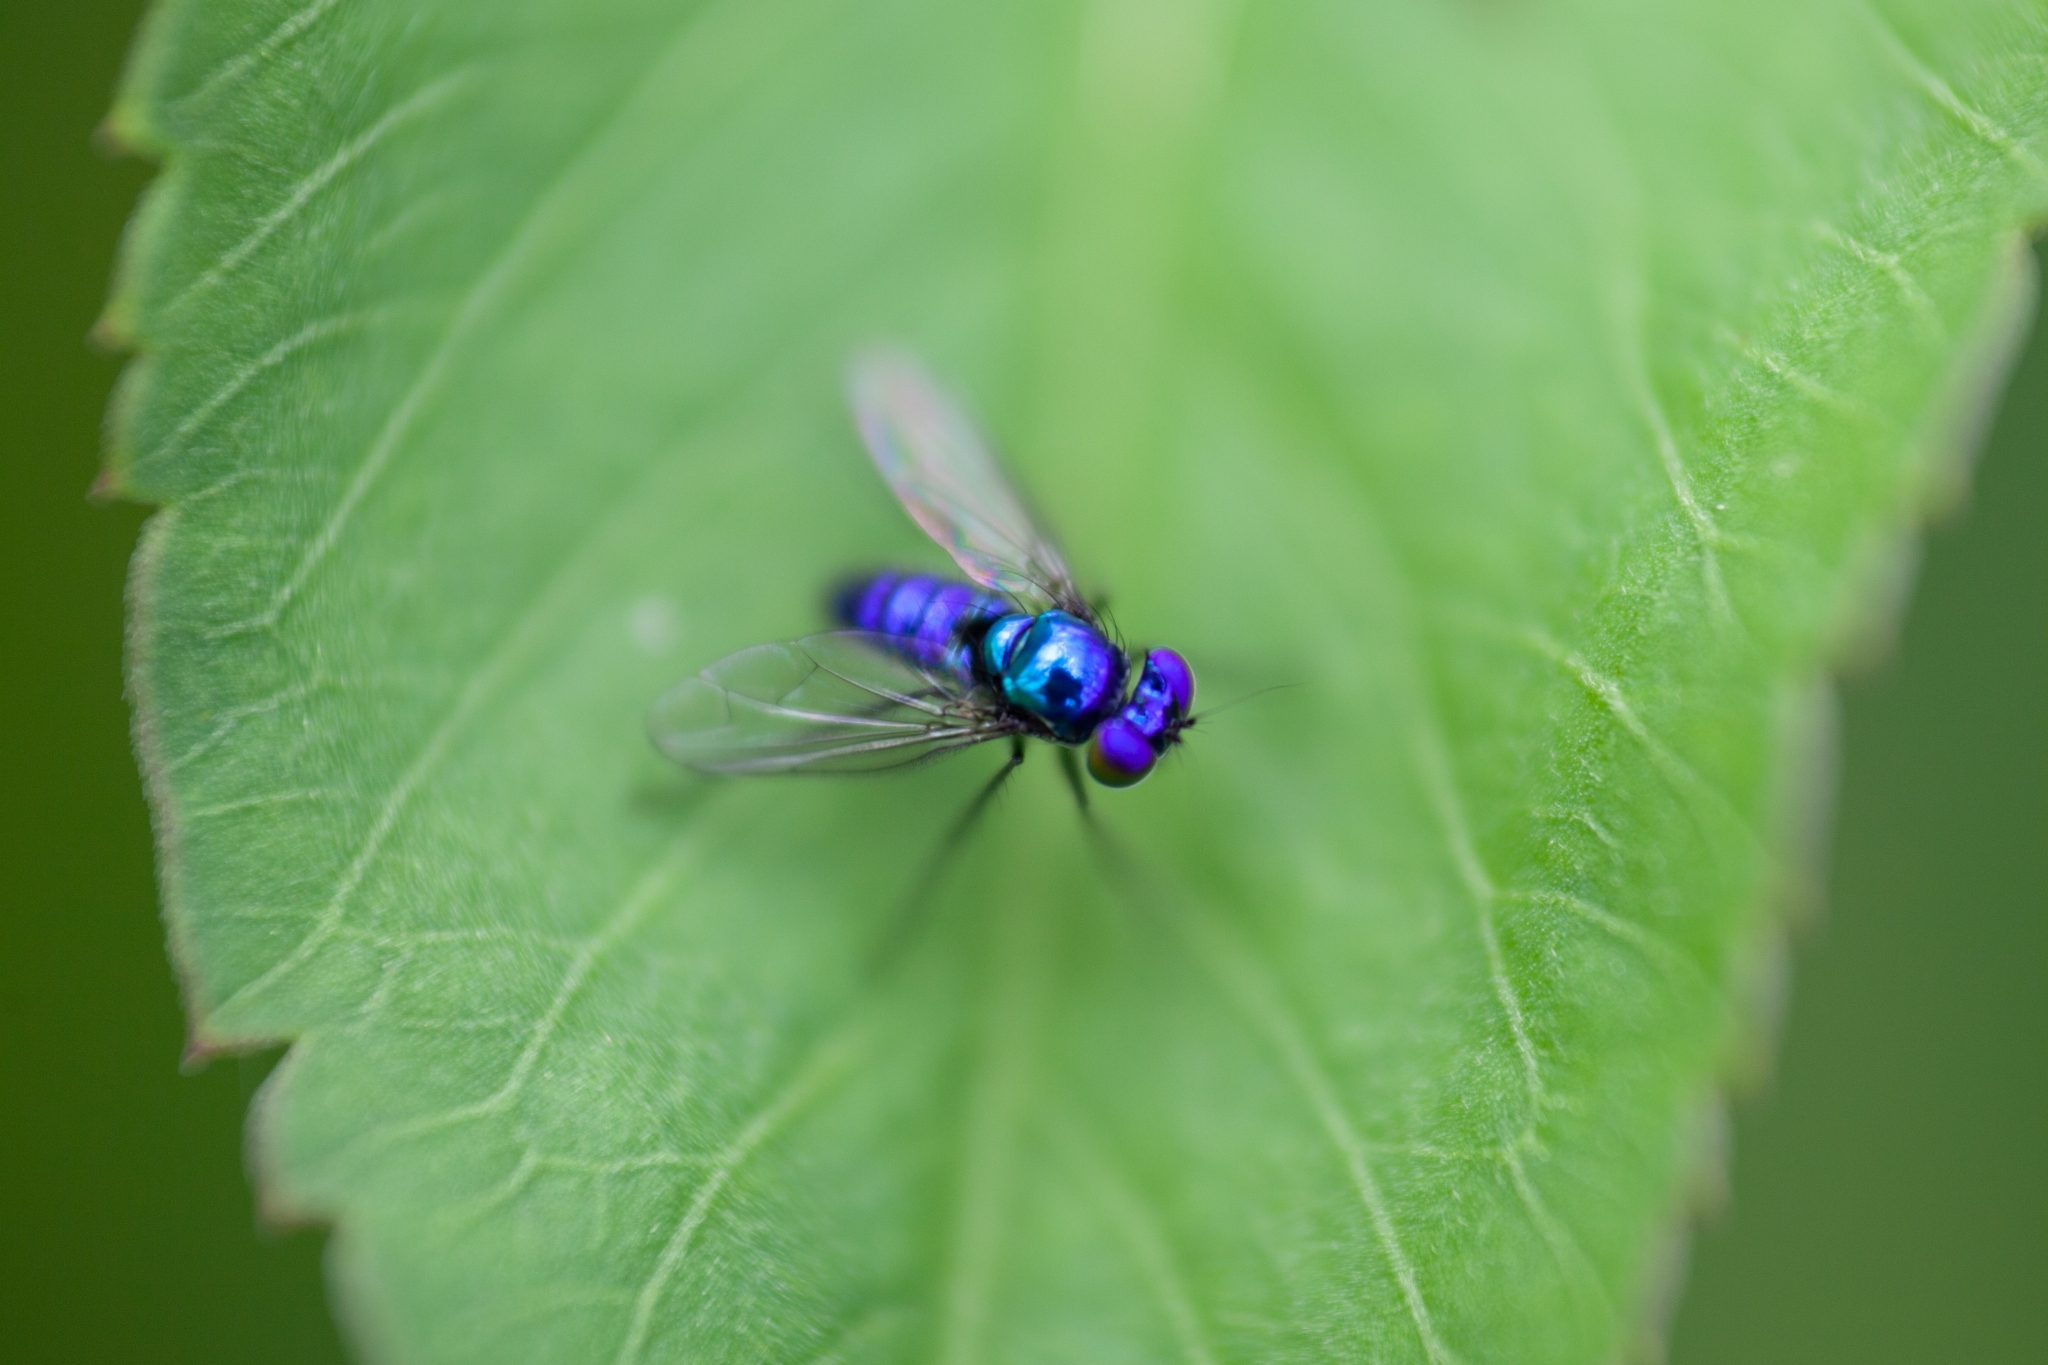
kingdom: Animalia
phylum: Arthropoda
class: Insecta
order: Diptera
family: Dolichopodidae
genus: Condylostylus
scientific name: Condylostylus mundus
